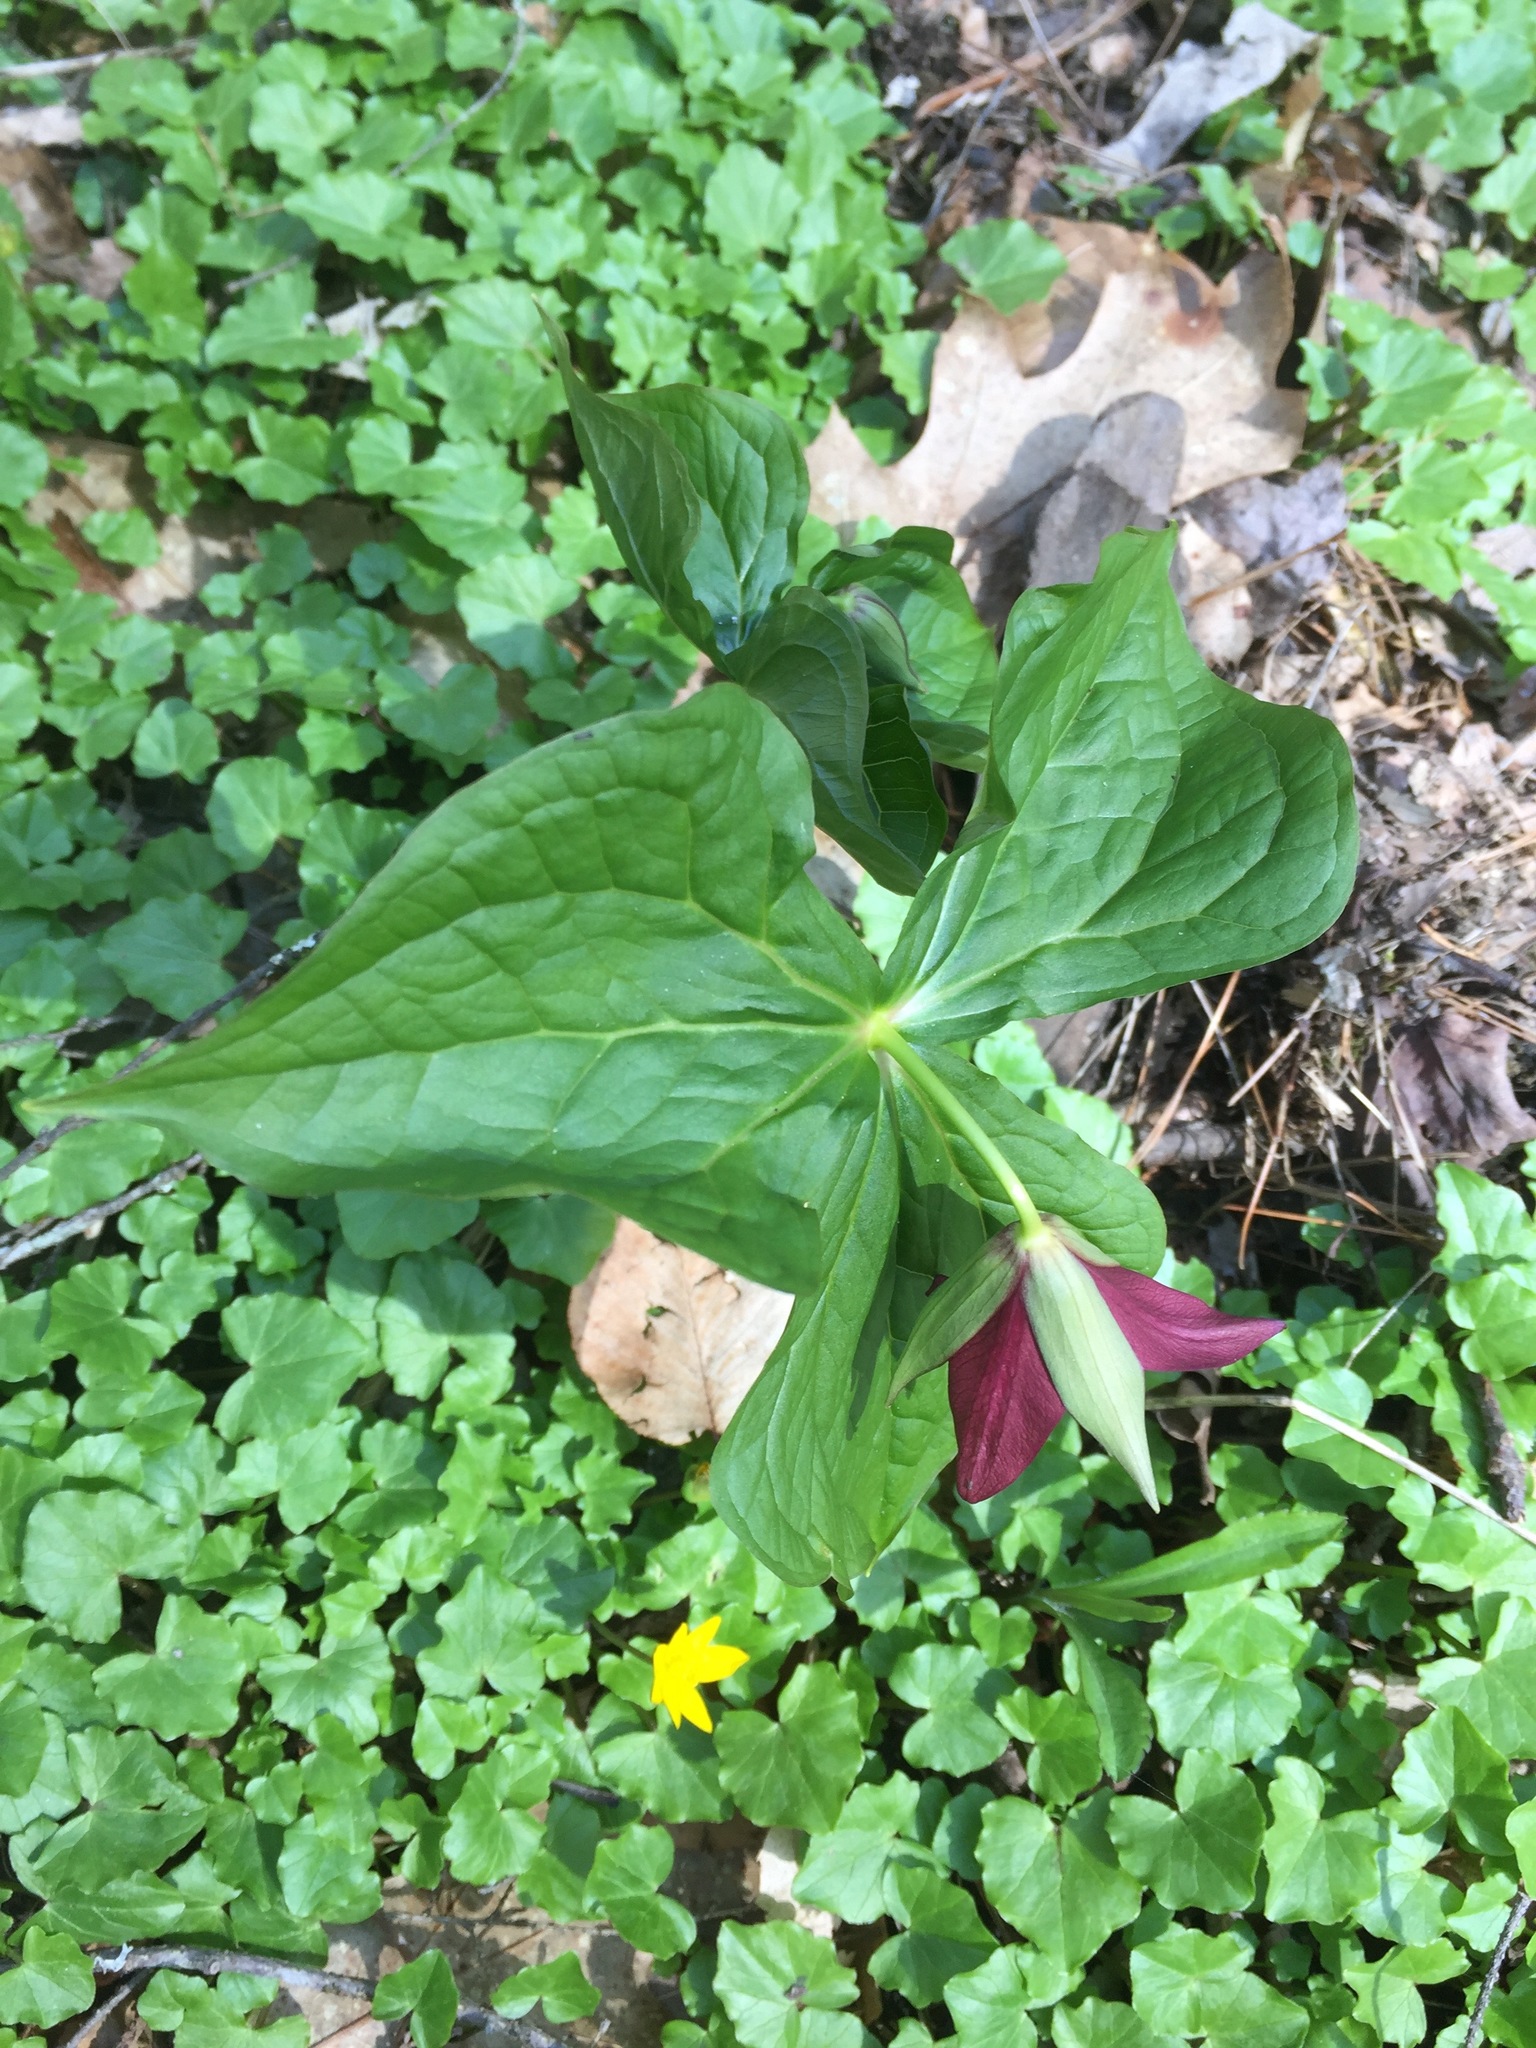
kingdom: Plantae
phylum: Tracheophyta
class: Liliopsida
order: Liliales
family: Melanthiaceae
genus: Trillium
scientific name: Trillium erectum
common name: Purple trillium
